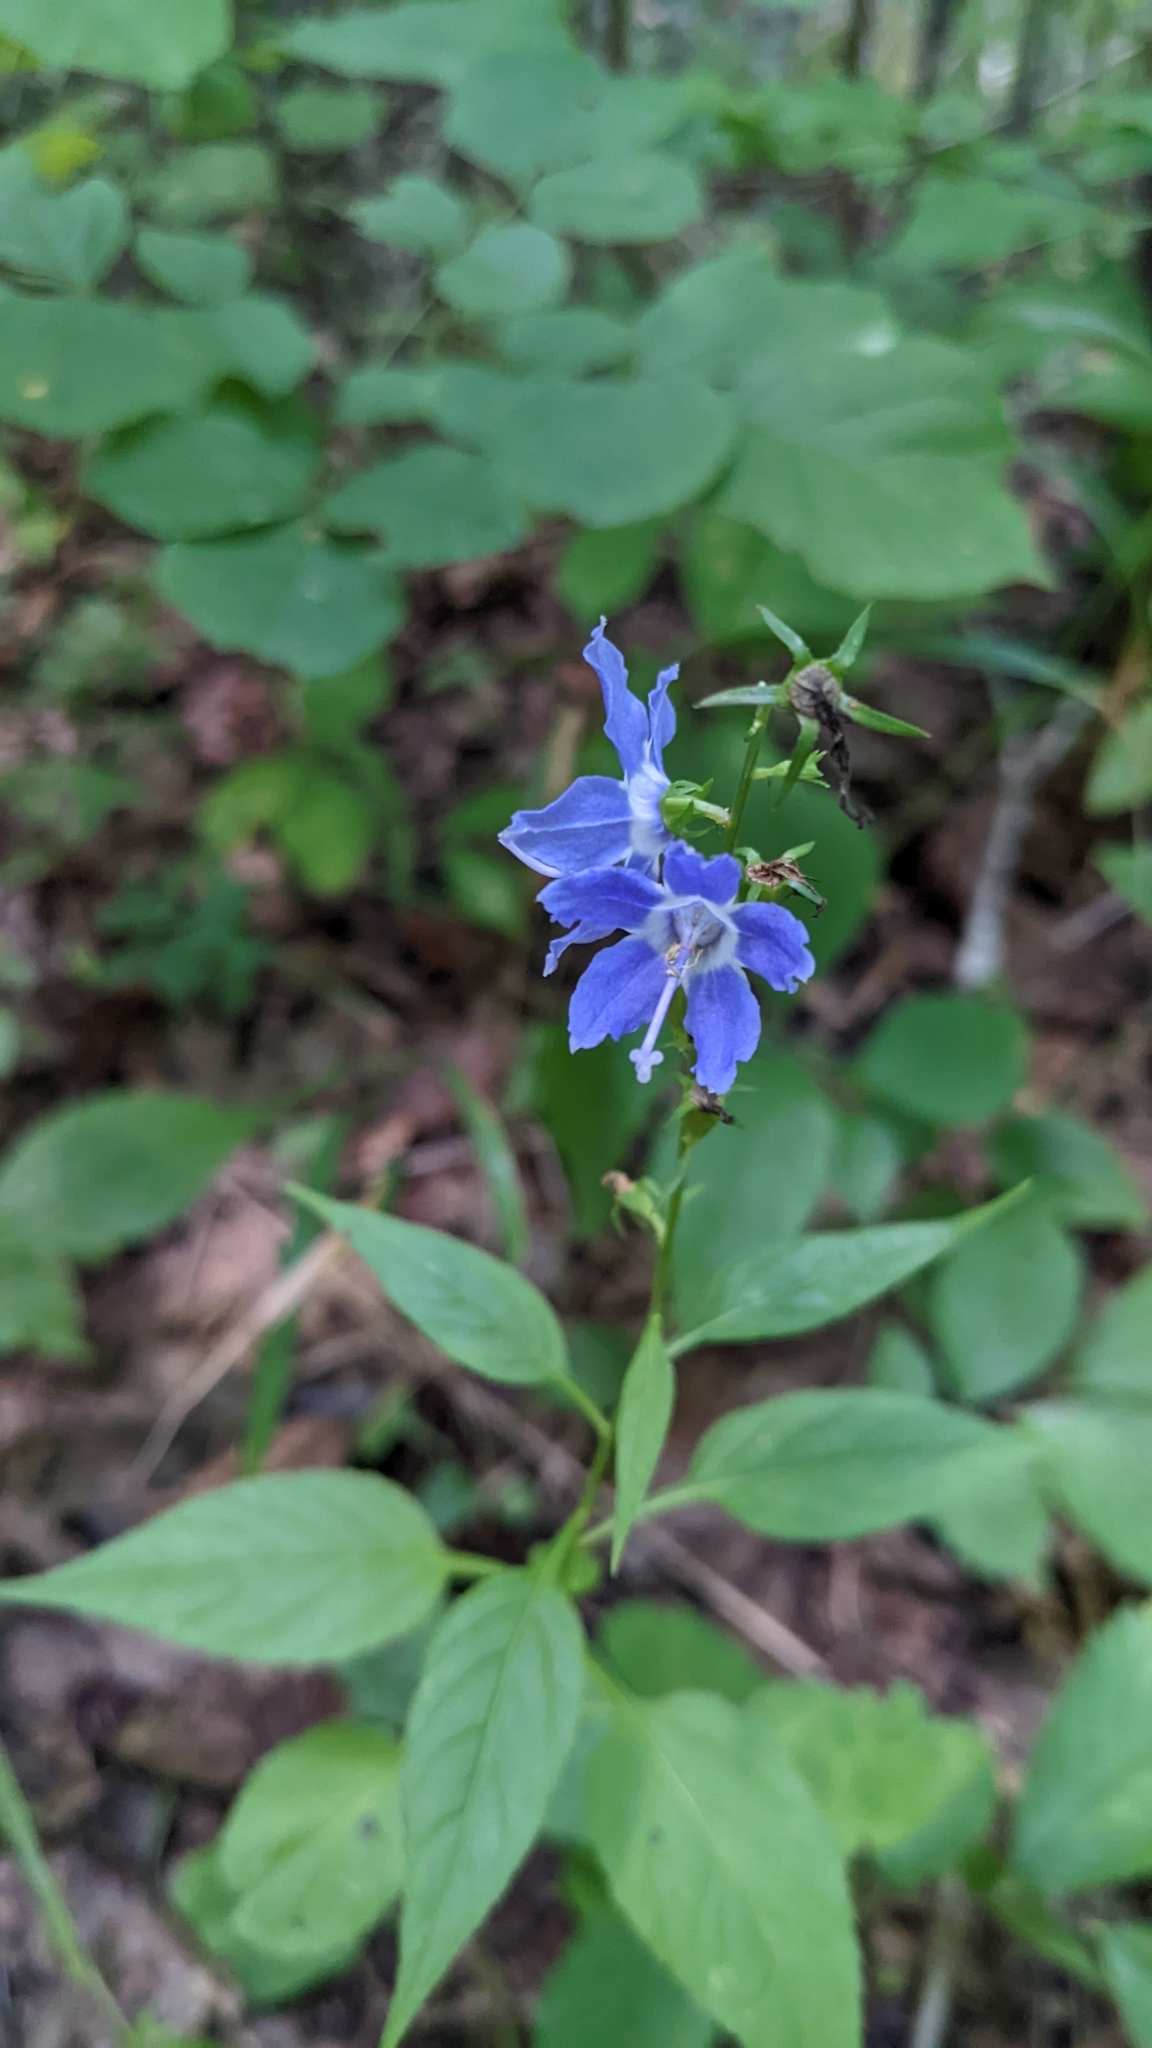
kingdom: Plantae
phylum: Tracheophyta
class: Magnoliopsida
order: Asterales
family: Campanulaceae
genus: Campanulastrum
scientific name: Campanulastrum americanum
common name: American bellflower
